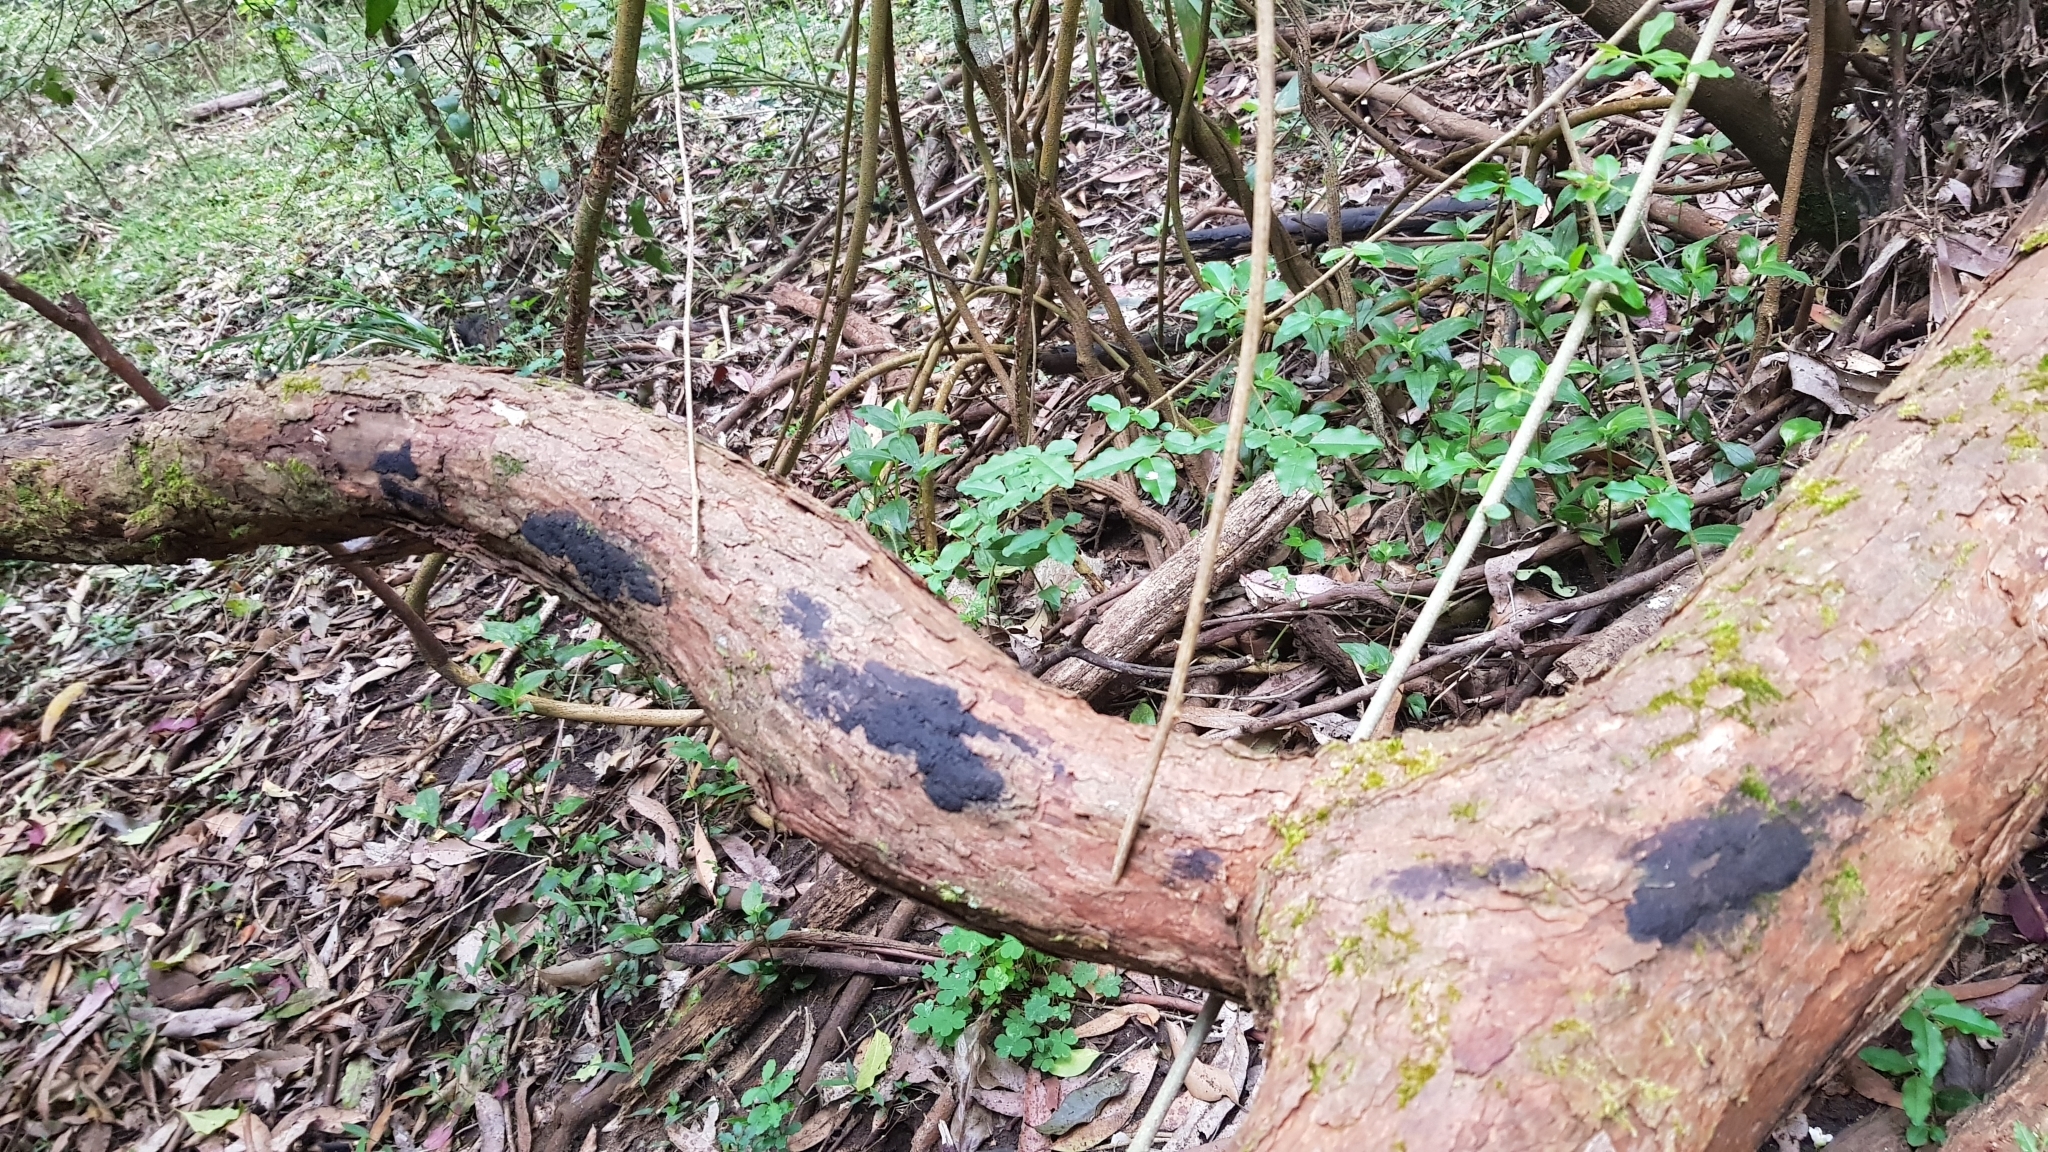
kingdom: Fungi
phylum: Ascomycota
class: Sordariomycetes
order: Xylariales
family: Hypoxylaceae
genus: Annulohypoxylon
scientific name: Annulohypoxylon bovei
